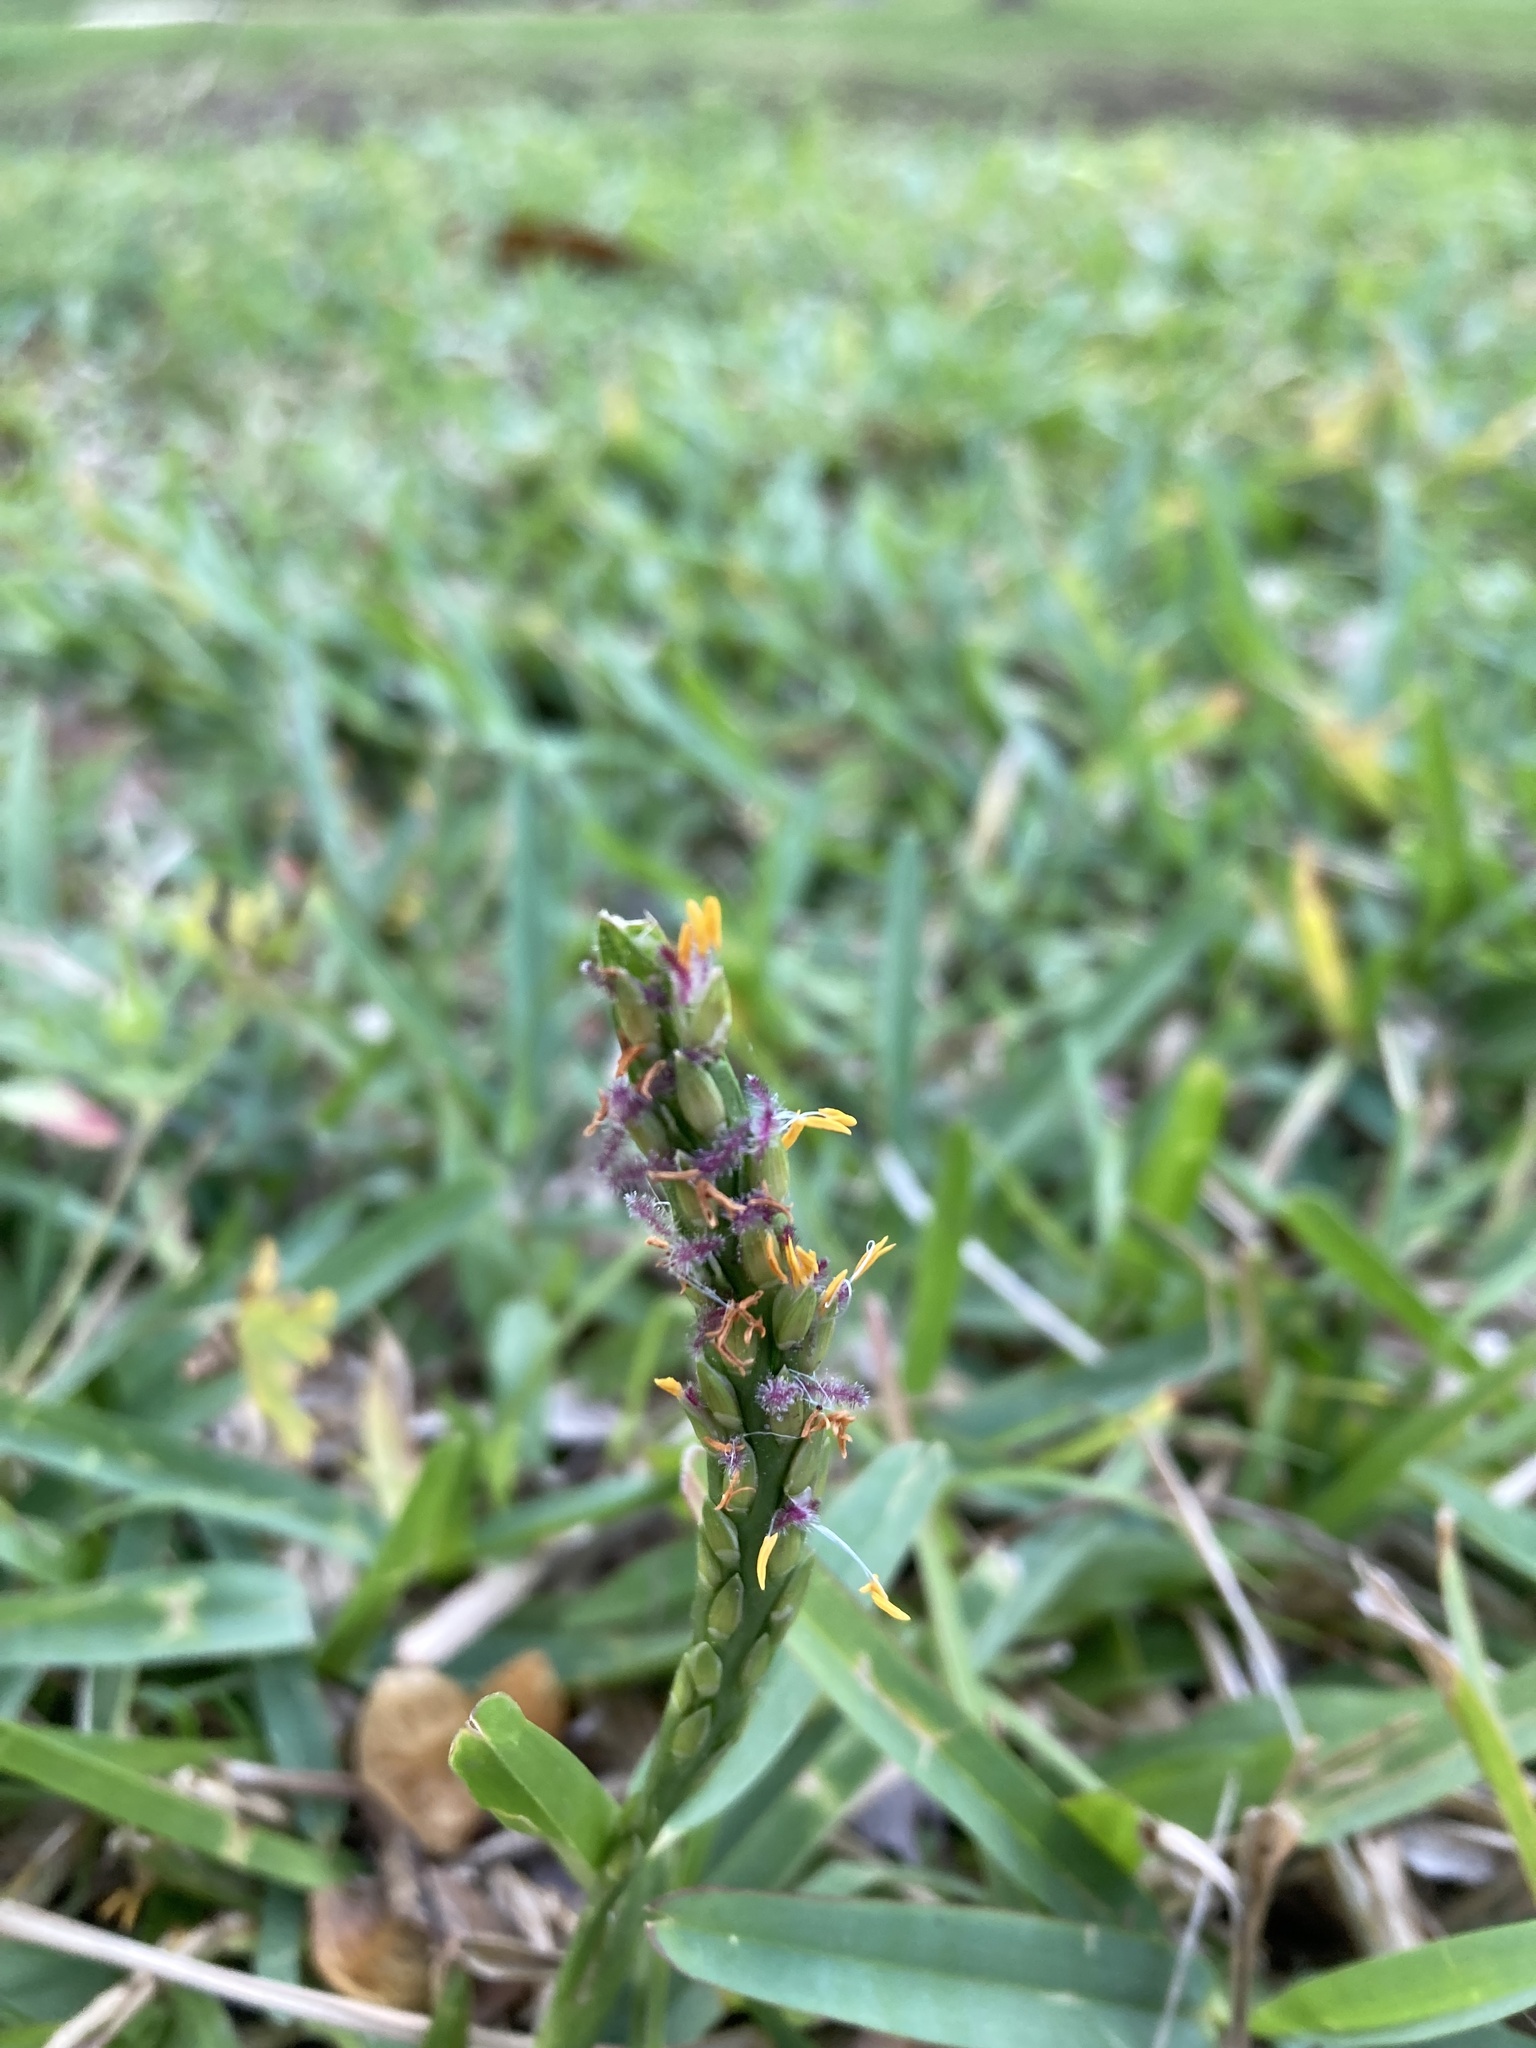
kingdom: Plantae
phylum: Tracheophyta
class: Liliopsida
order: Poales
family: Poaceae
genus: Stenotaphrum
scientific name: Stenotaphrum secundatum
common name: St. augustine grass
